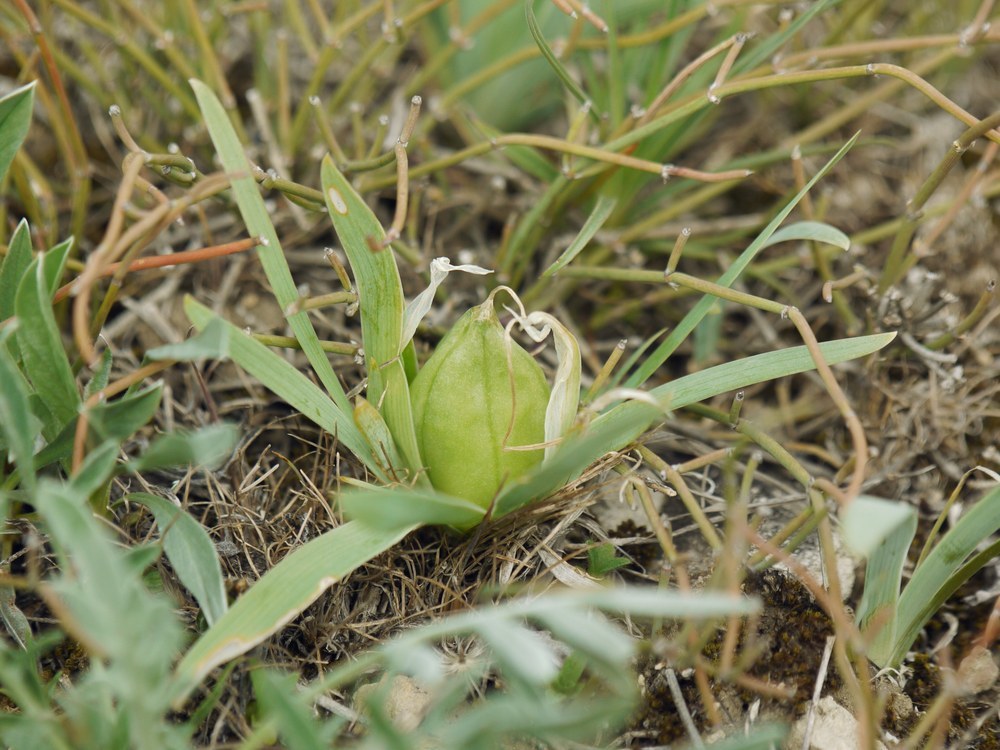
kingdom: Plantae
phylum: Tracheophyta
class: Liliopsida
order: Asparagales
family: Iridaceae
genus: Iris
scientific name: Iris pumila
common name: Dwarf iris
